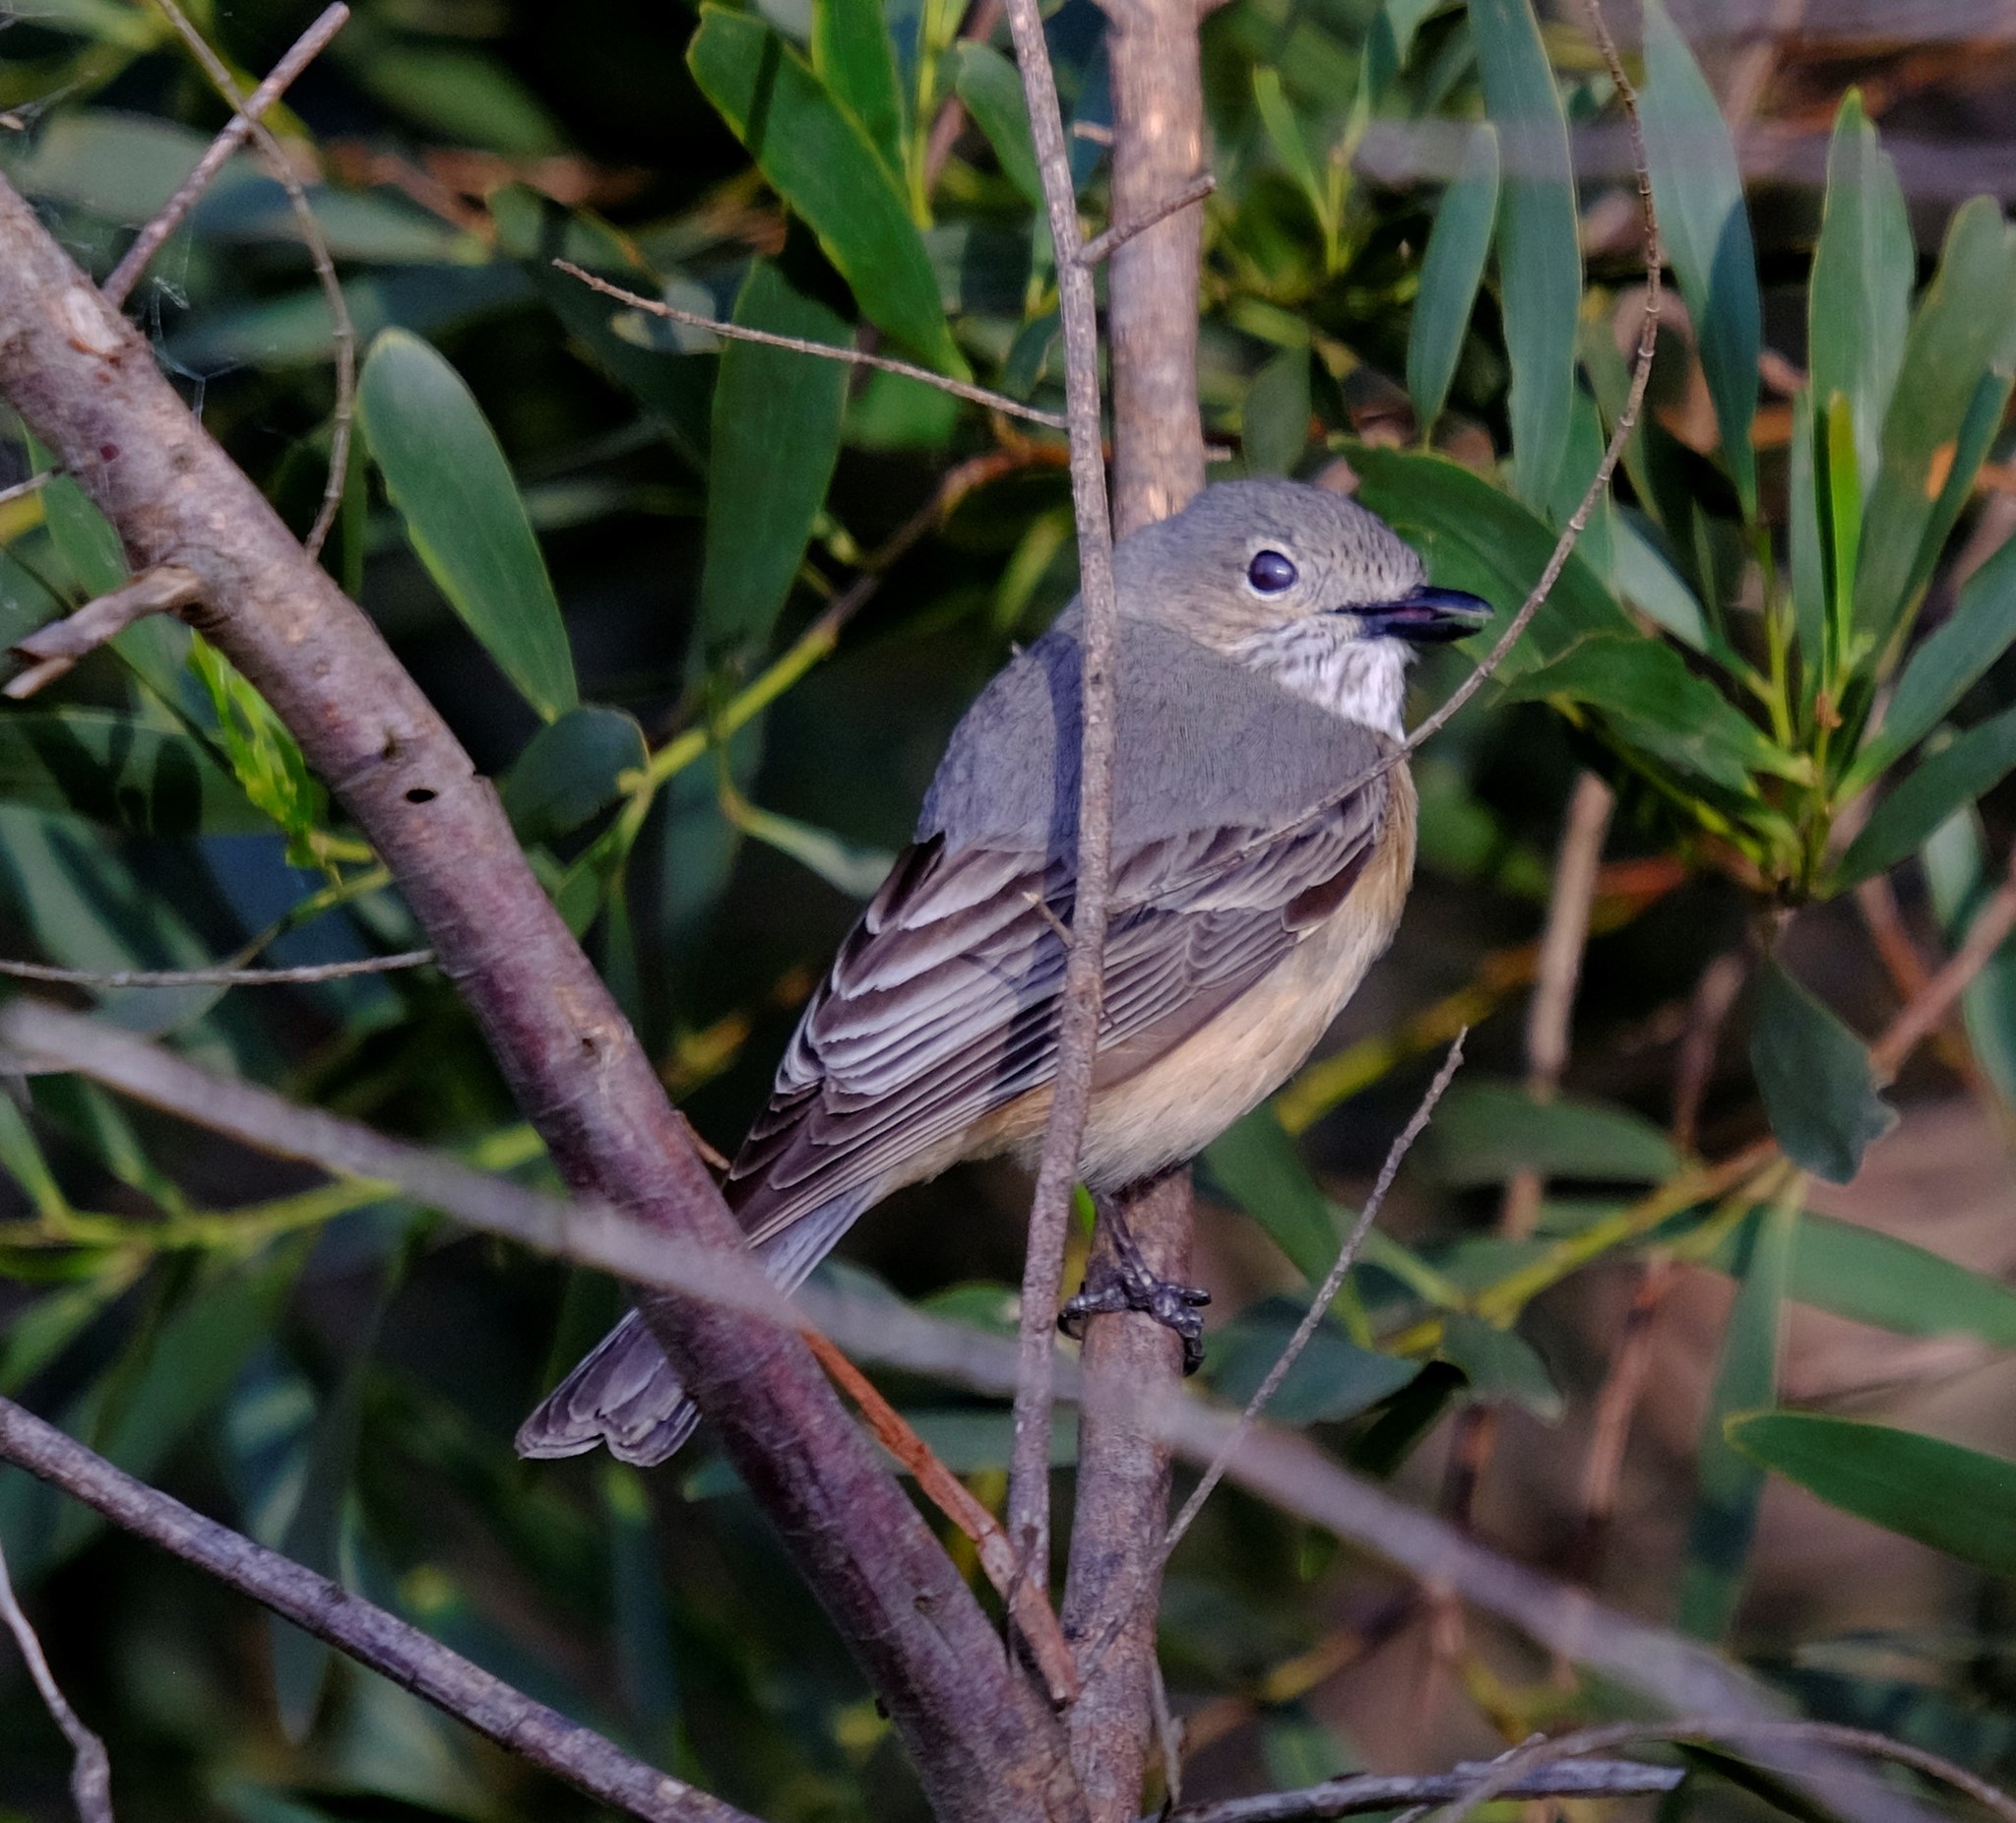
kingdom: Animalia
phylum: Chordata
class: Aves
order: Passeriformes
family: Pachycephalidae
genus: Pachycephala
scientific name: Pachycephala rufiventris
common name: Rufous whistler
